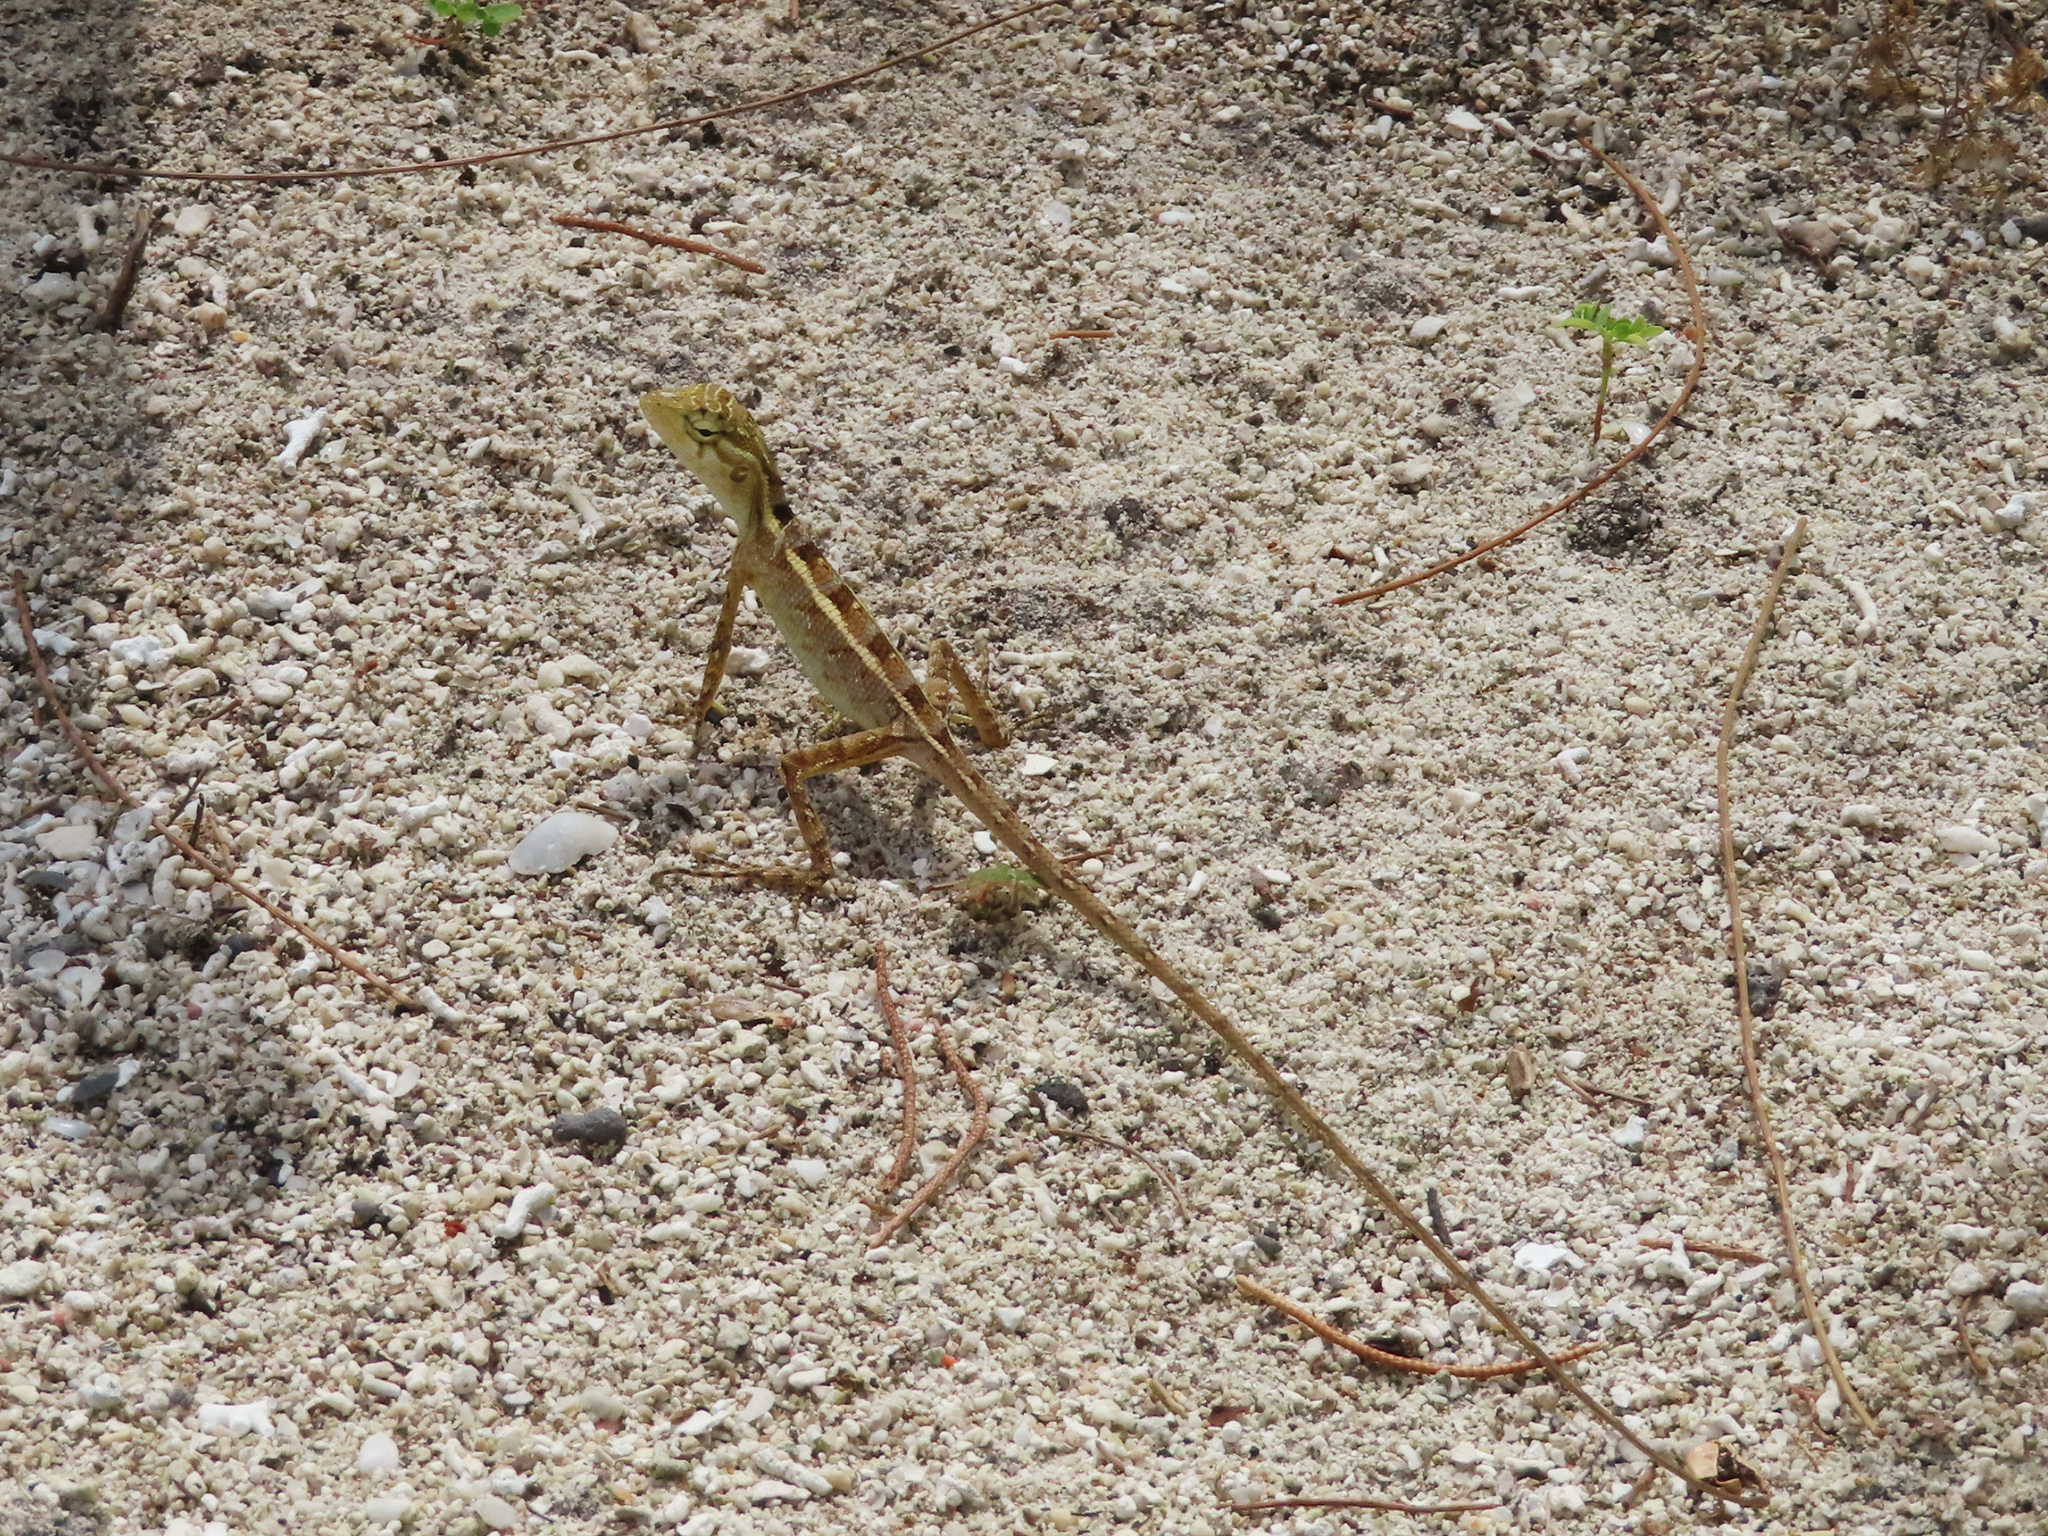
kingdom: Animalia
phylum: Chordata
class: Squamata
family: Agamidae
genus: Calotes
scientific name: Calotes versicolor
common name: Oriental garden lizard
